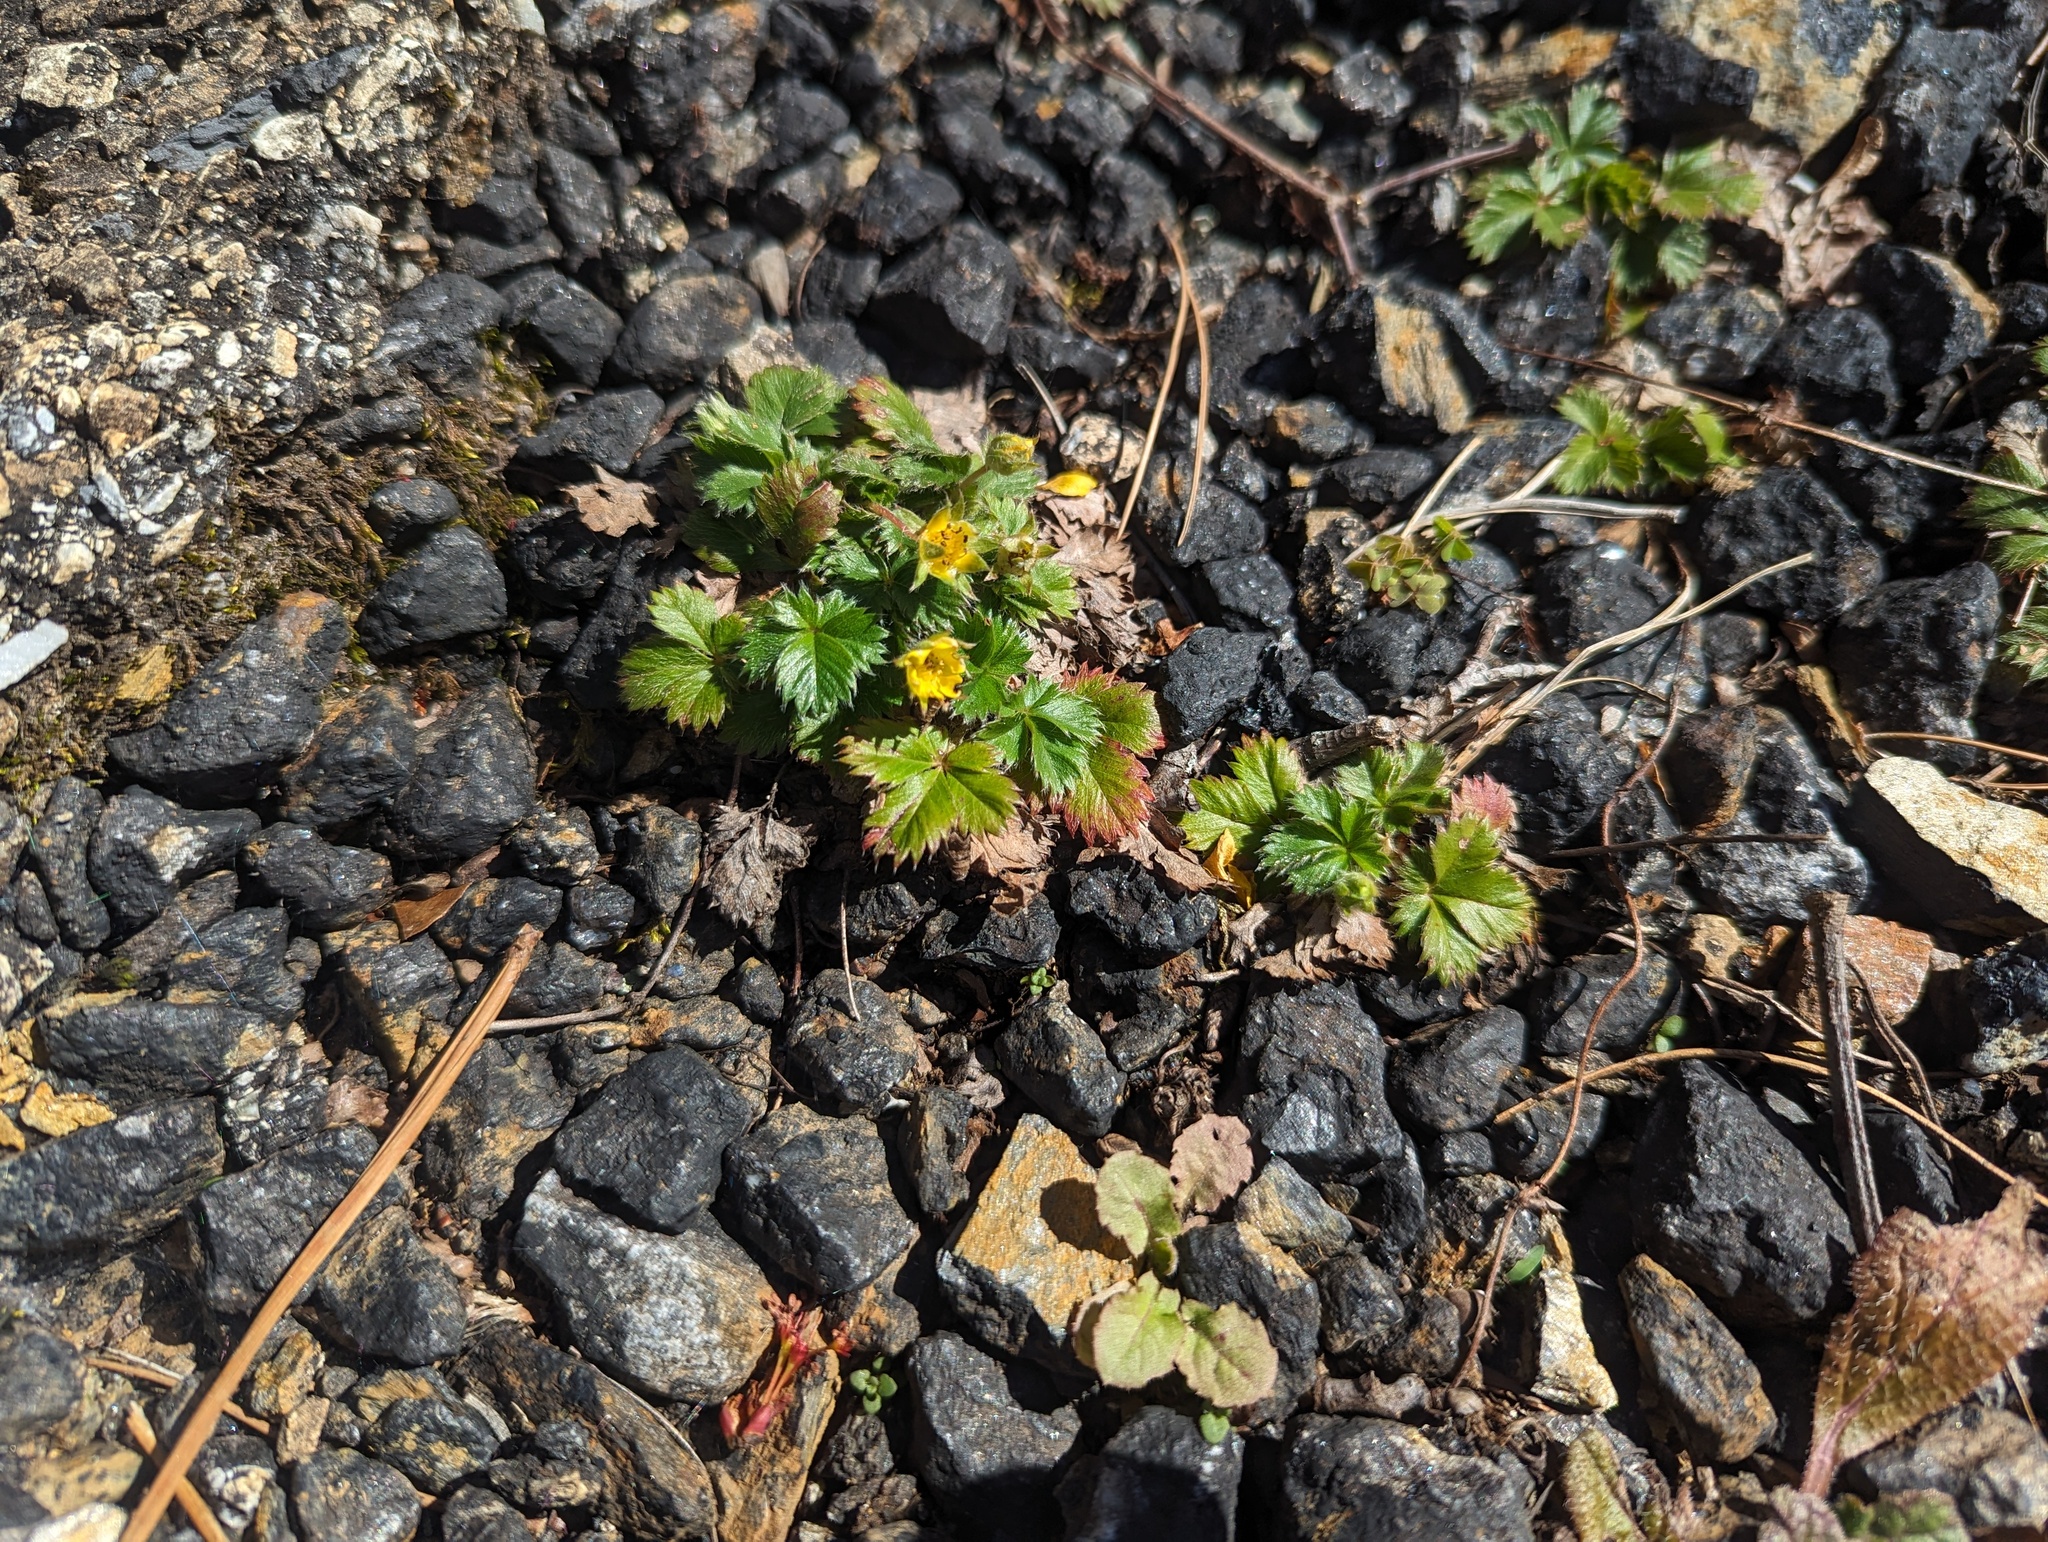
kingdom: Plantae
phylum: Tracheophyta
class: Magnoliopsida
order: Rosales
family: Rosaceae
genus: Potentilla
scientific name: Potentilla canadensis
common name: Canada cinquefoil
